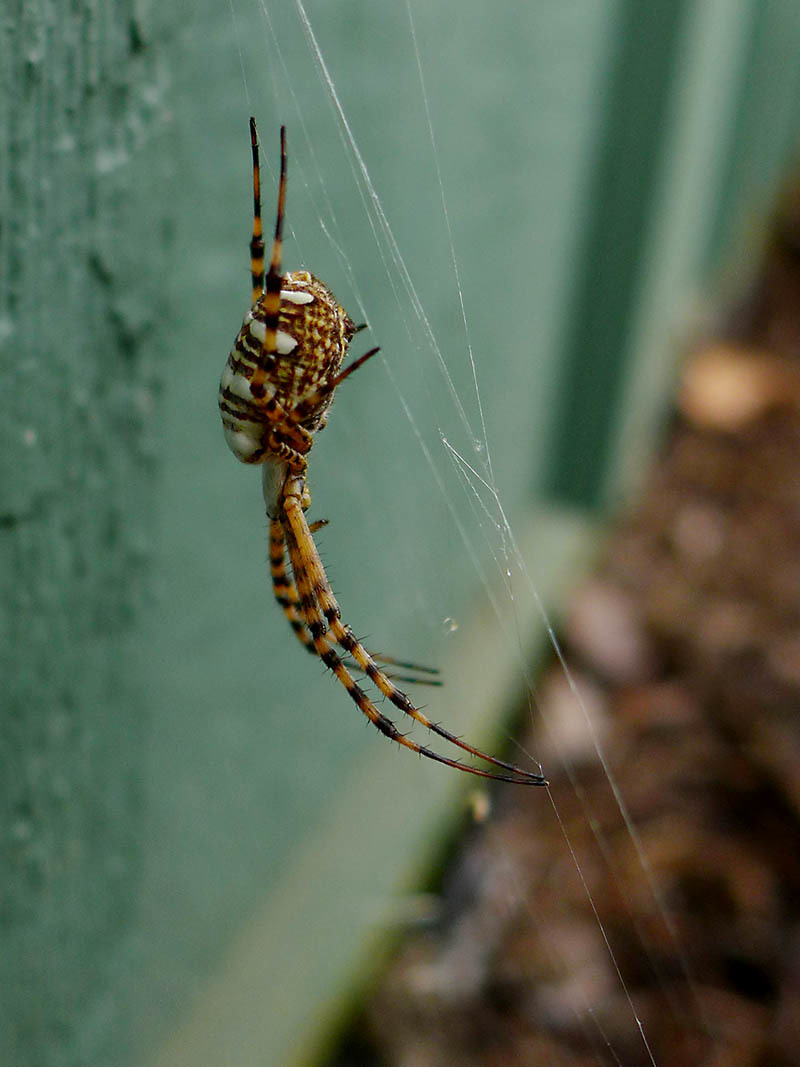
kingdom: Animalia
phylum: Arthropoda
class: Arachnida
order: Araneae
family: Araneidae
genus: Argiope
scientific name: Argiope trifasciata
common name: Banded garden spider
